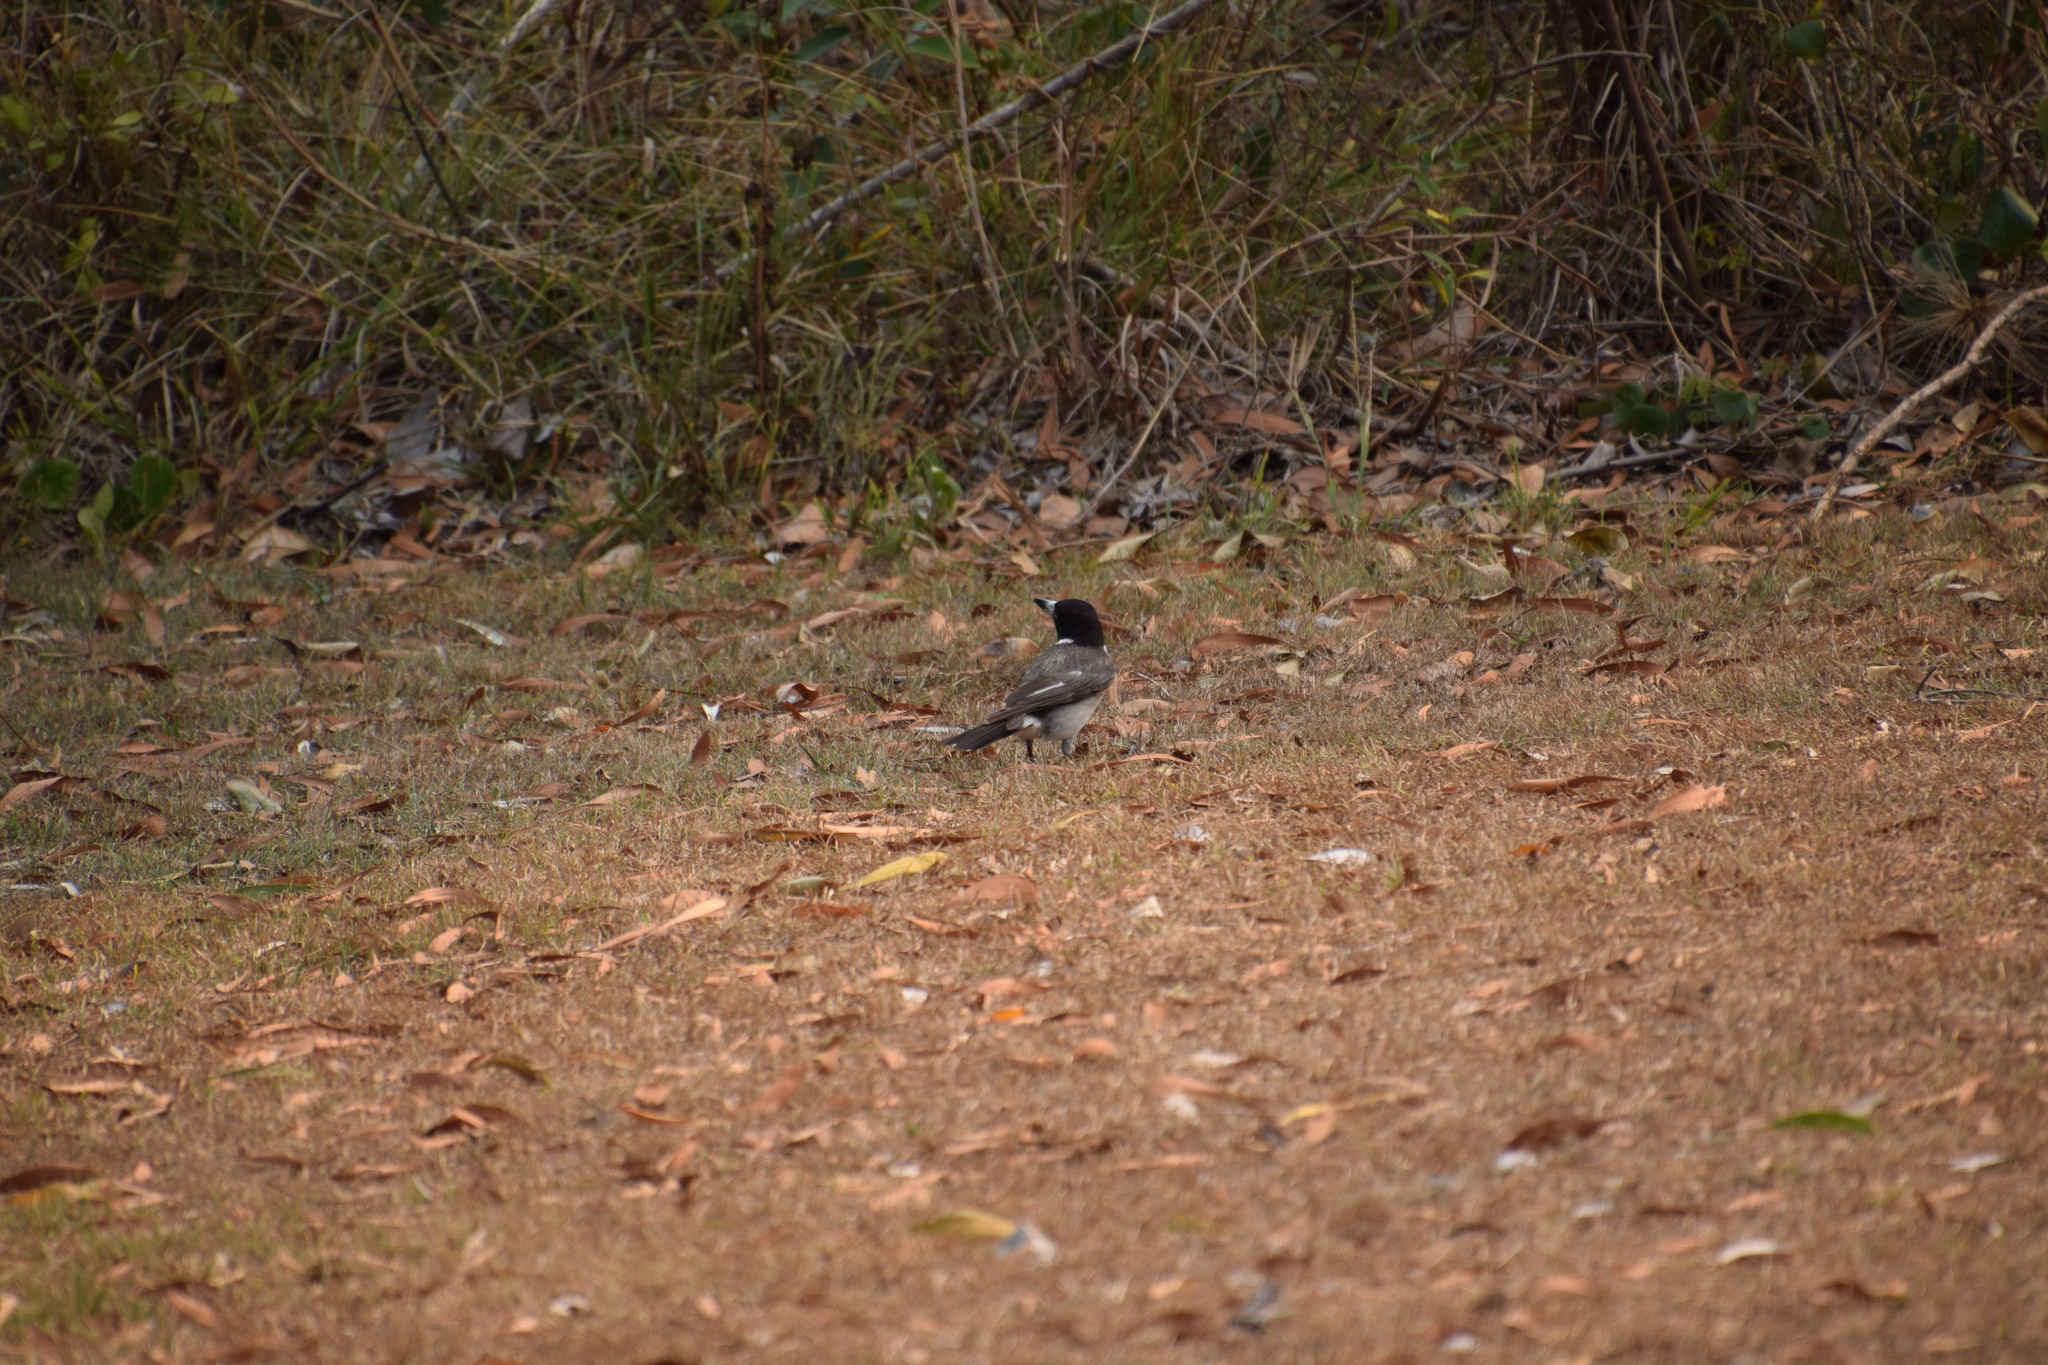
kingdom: Animalia
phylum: Chordata
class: Aves
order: Passeriformes
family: Cracticidae
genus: Cracticus
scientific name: Cracticus torquatus
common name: Grey butcherbird
